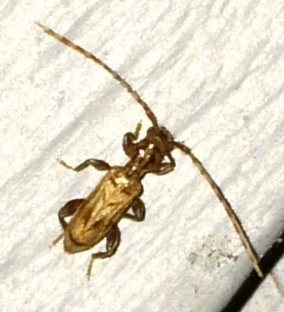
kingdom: Animalia
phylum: Arthropoda
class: Insecta
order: Coleoptera
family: Cerambycidae
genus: Obrium
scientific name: Obrium maculatum
